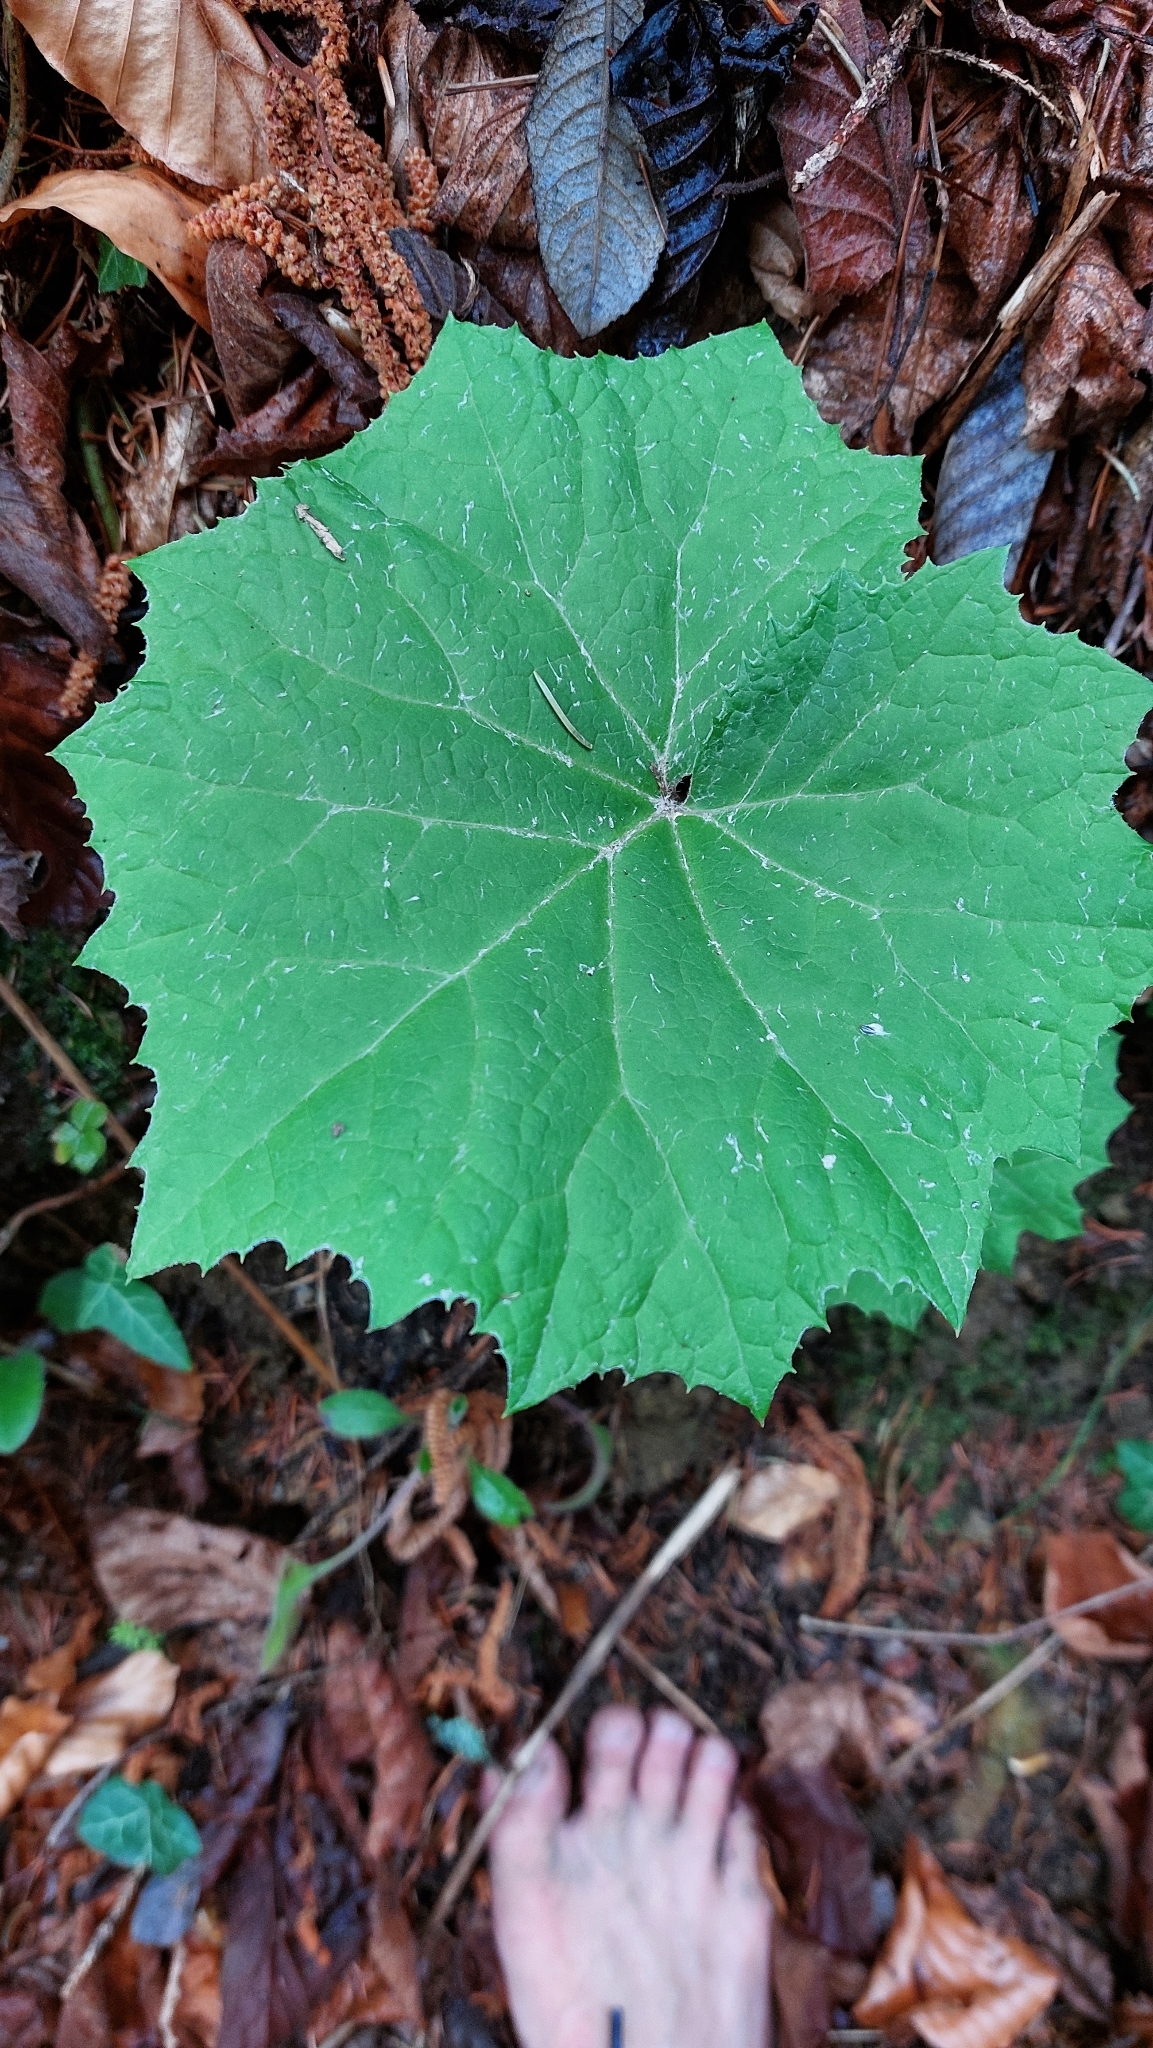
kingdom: Plantae
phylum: Tracheophyta
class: Magnoliopsida
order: Asterales
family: Asteraceae
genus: Petasites
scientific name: Petasites albus
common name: White butterbur
